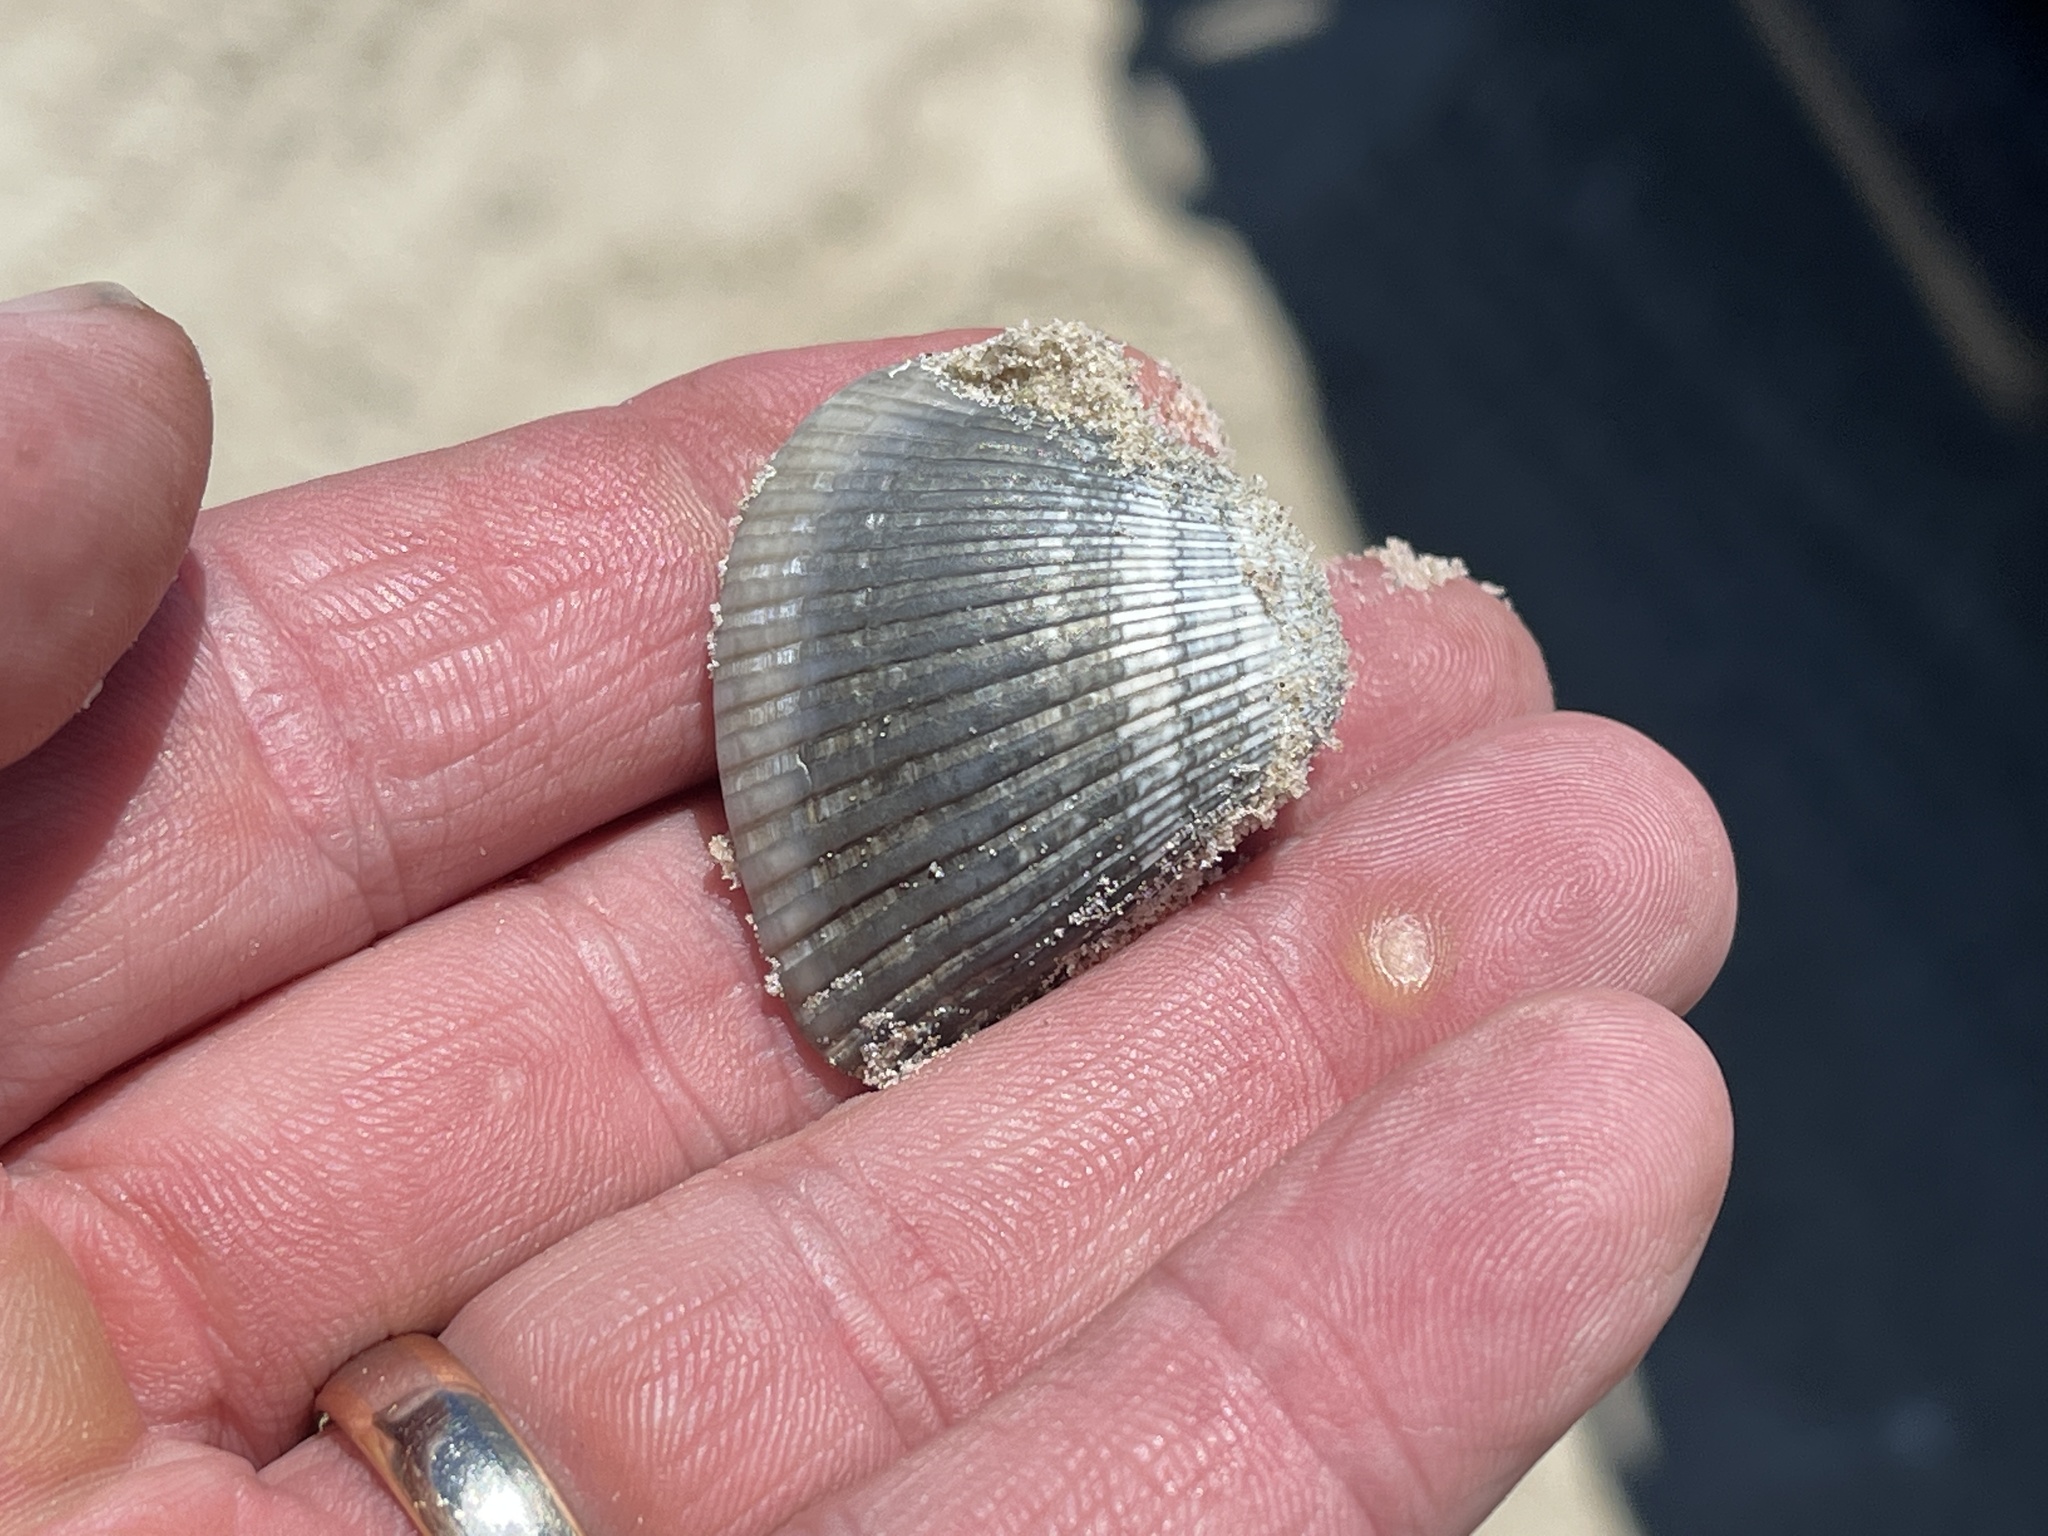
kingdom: Animalia
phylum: Mollusca
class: Bivalvia
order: Arcida
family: Noetiidae
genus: Noetia
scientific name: Noetia ponderosa
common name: Ponderous ark
